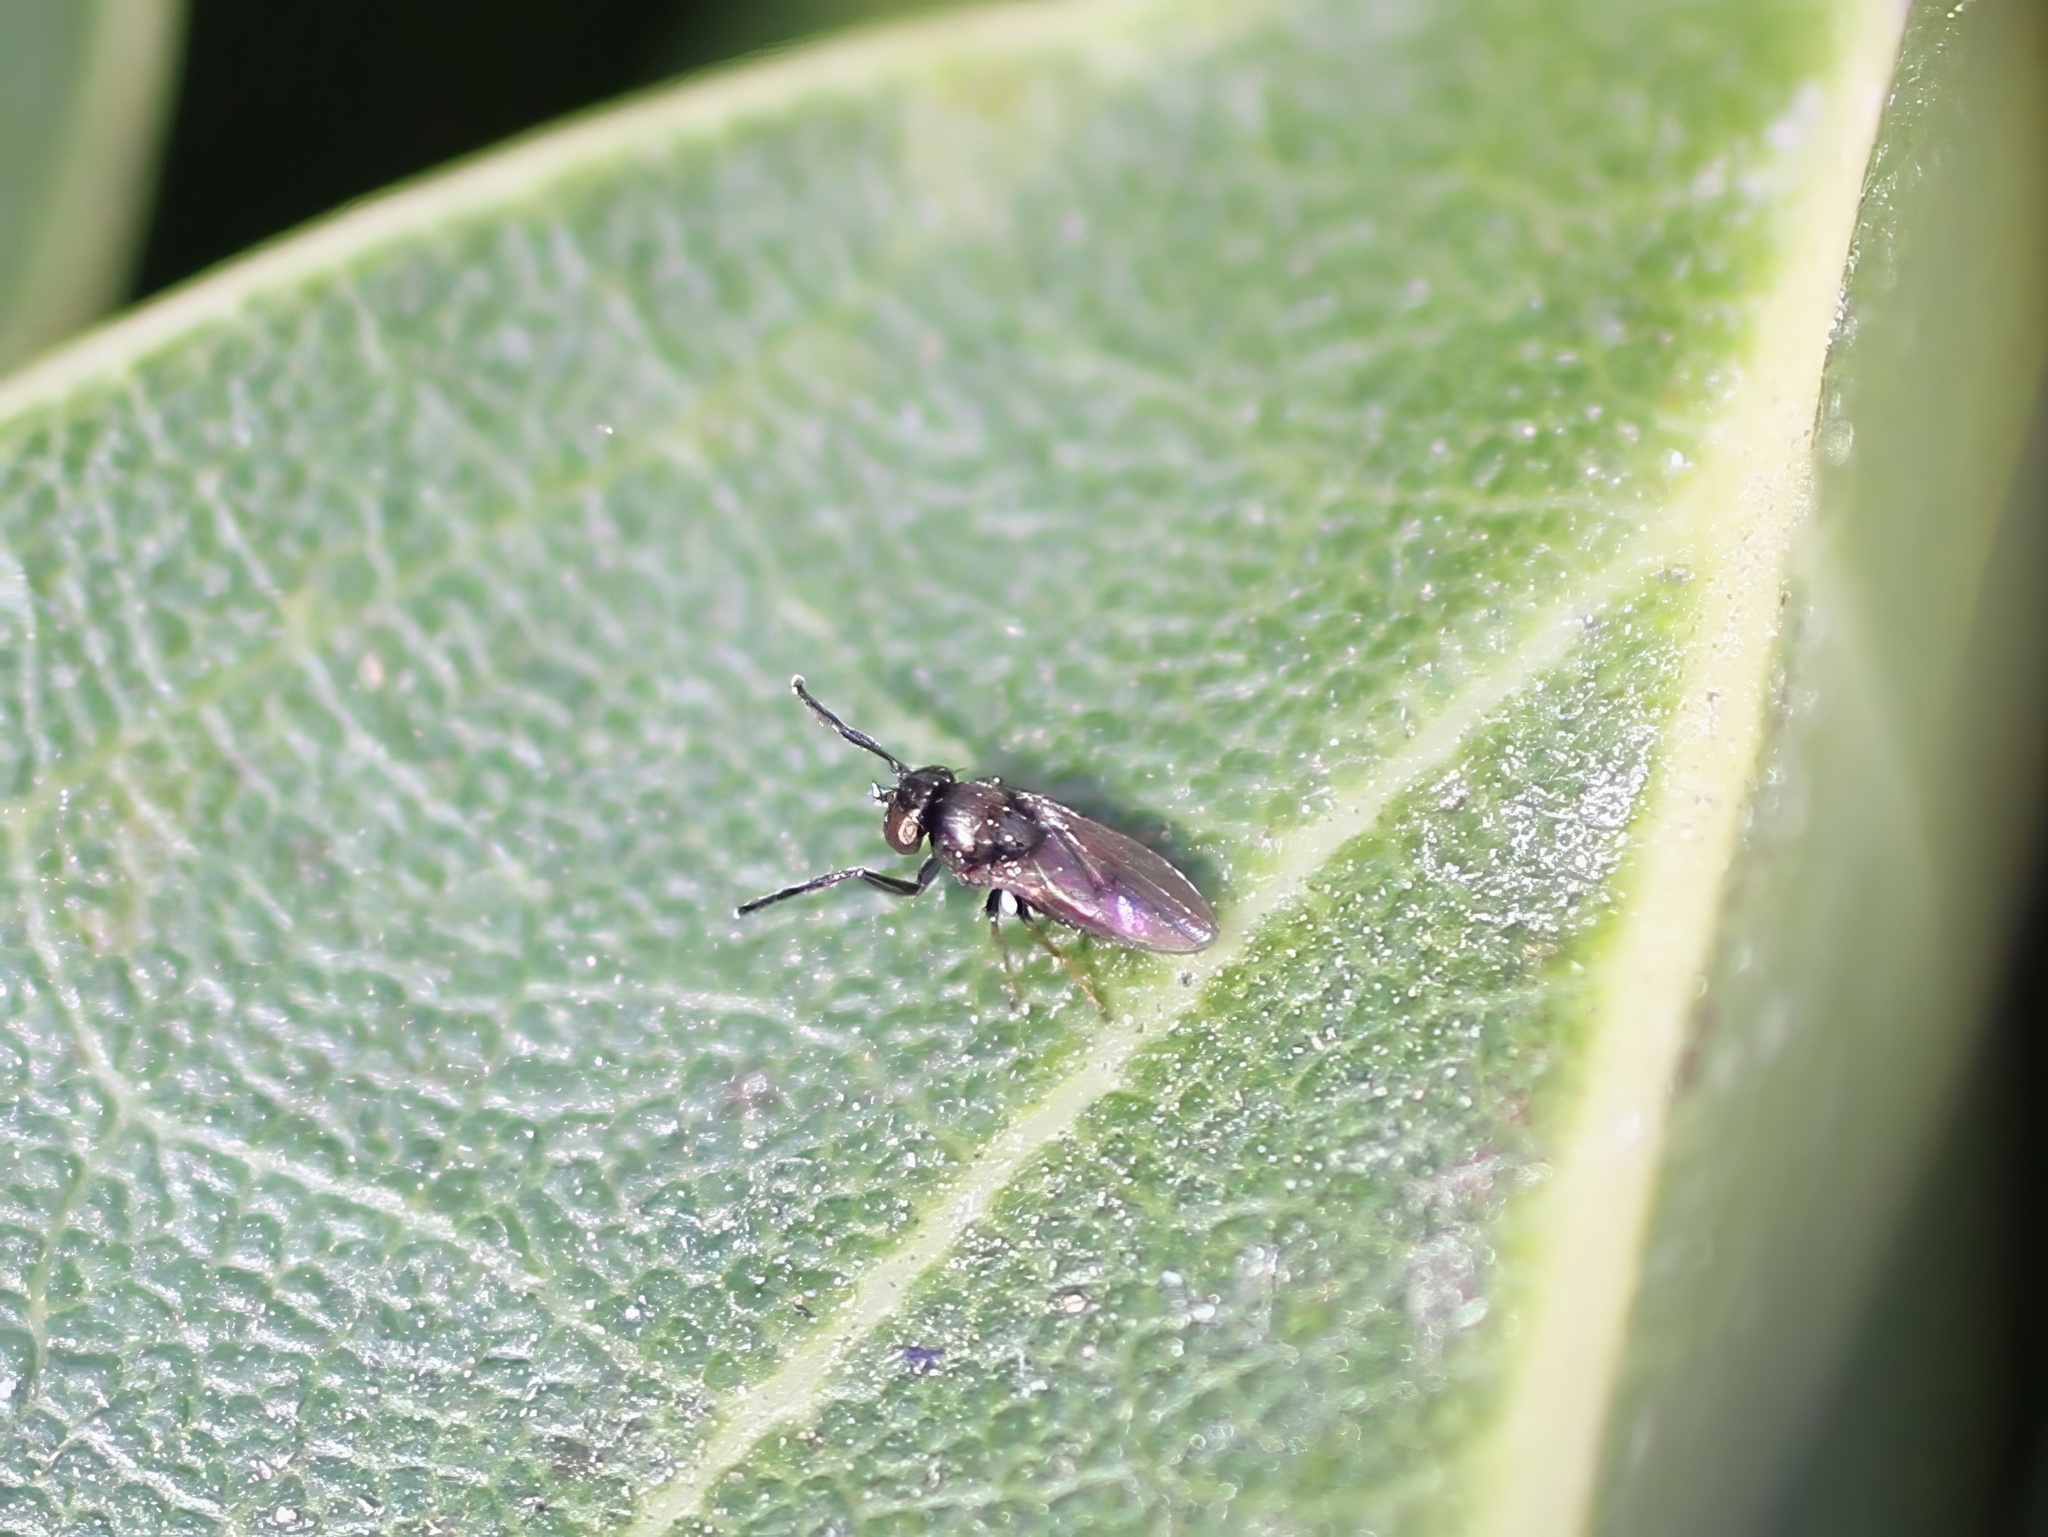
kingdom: Animalia
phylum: Arthropoda
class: Insecta
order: Diptera
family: Ephydridae
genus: Leptopsilopa
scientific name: Leptopsilopa varipes
